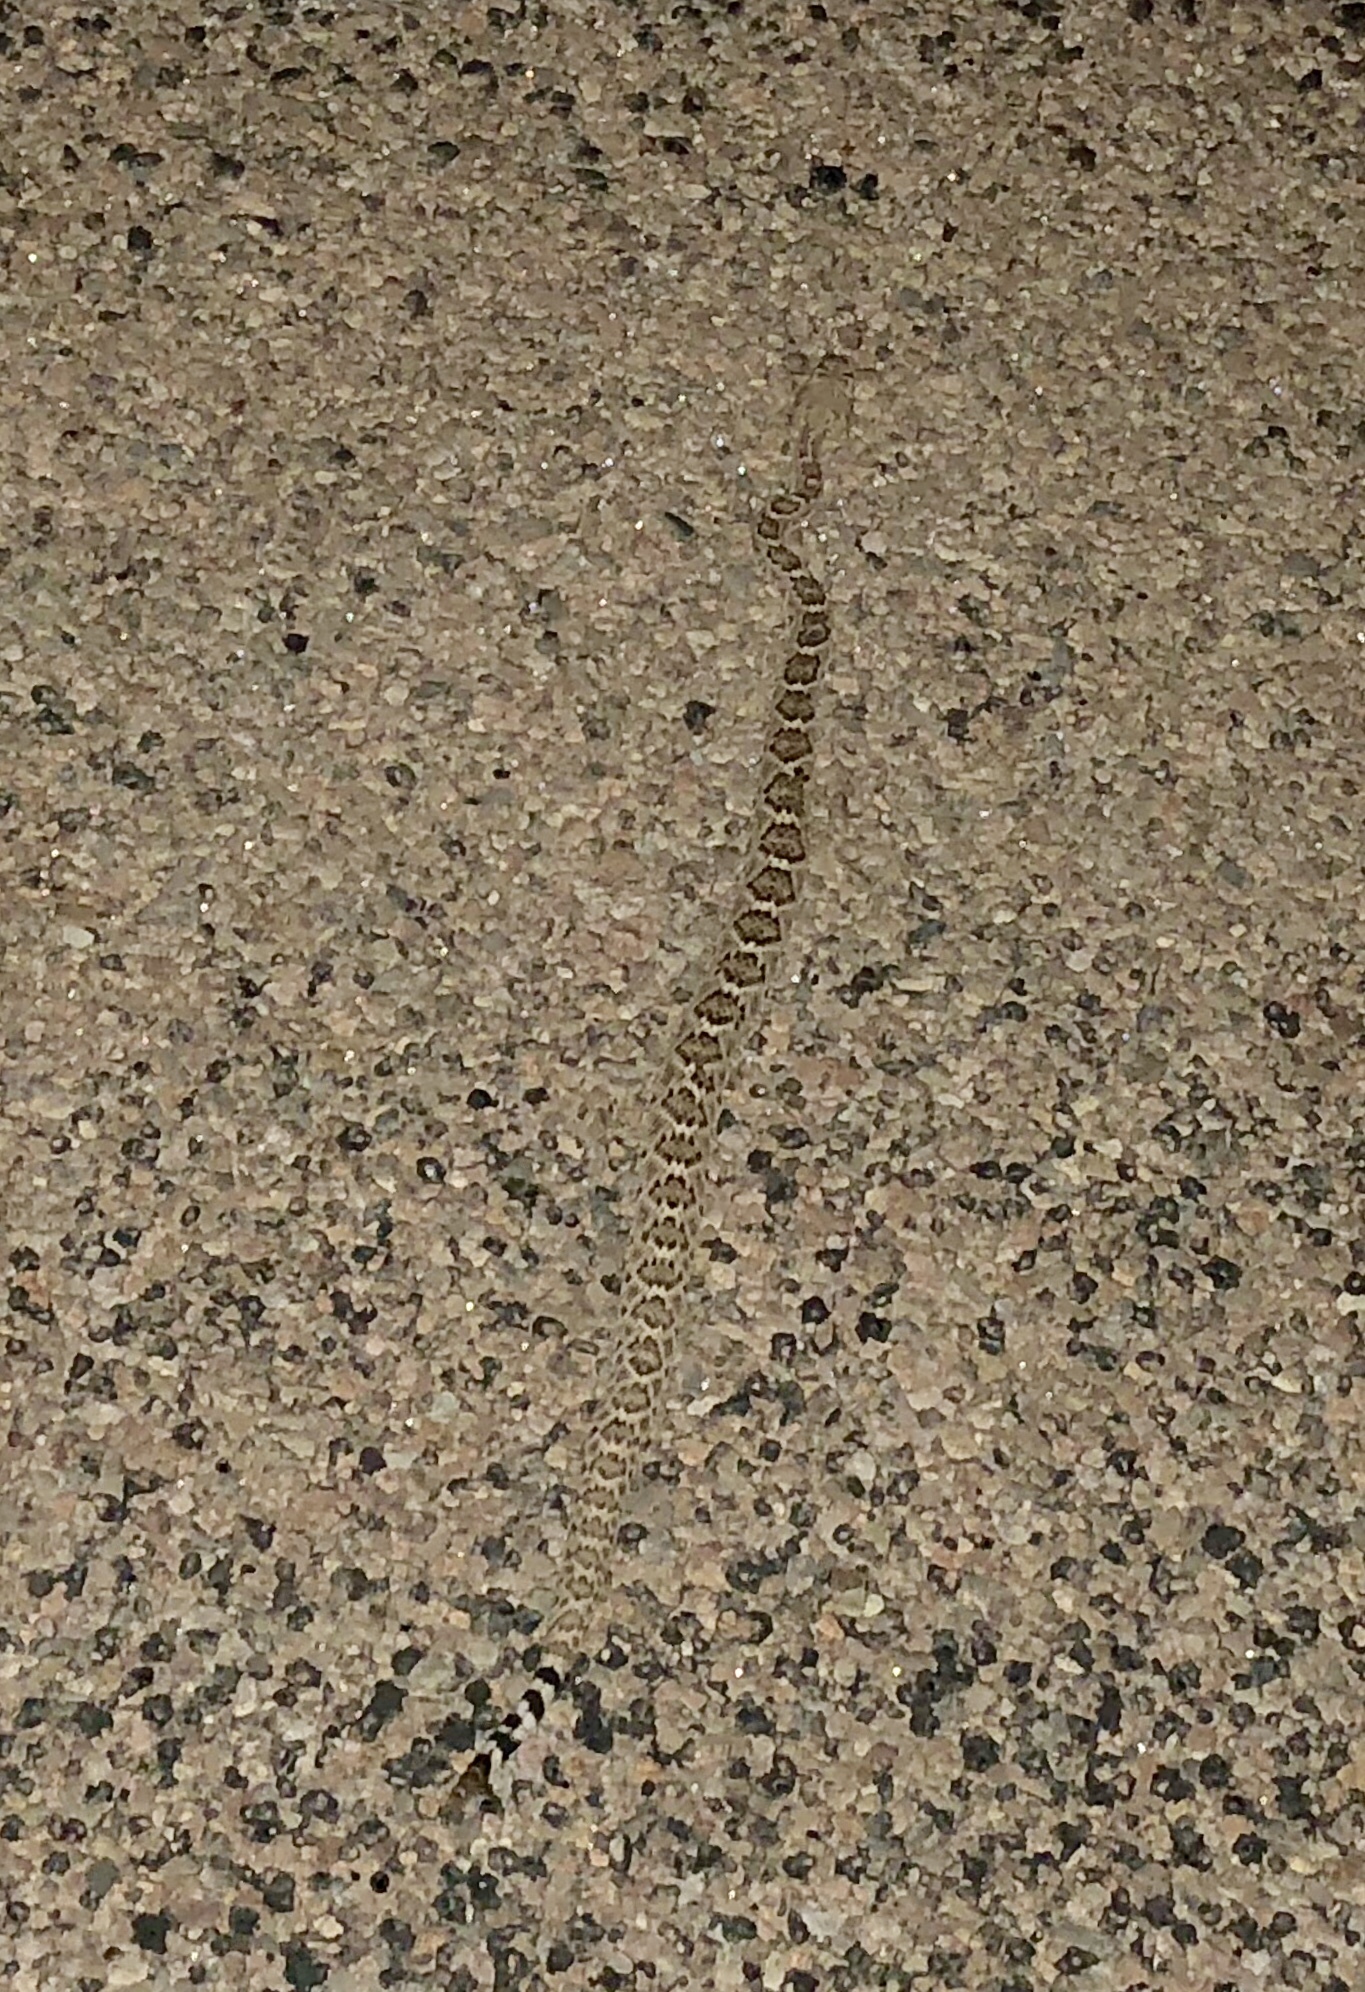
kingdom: Animalia
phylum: Chordata
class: Squamata
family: Viperidae
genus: Crotalus
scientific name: Crotalus atrox
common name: Western diamond-backed rattlesnake
